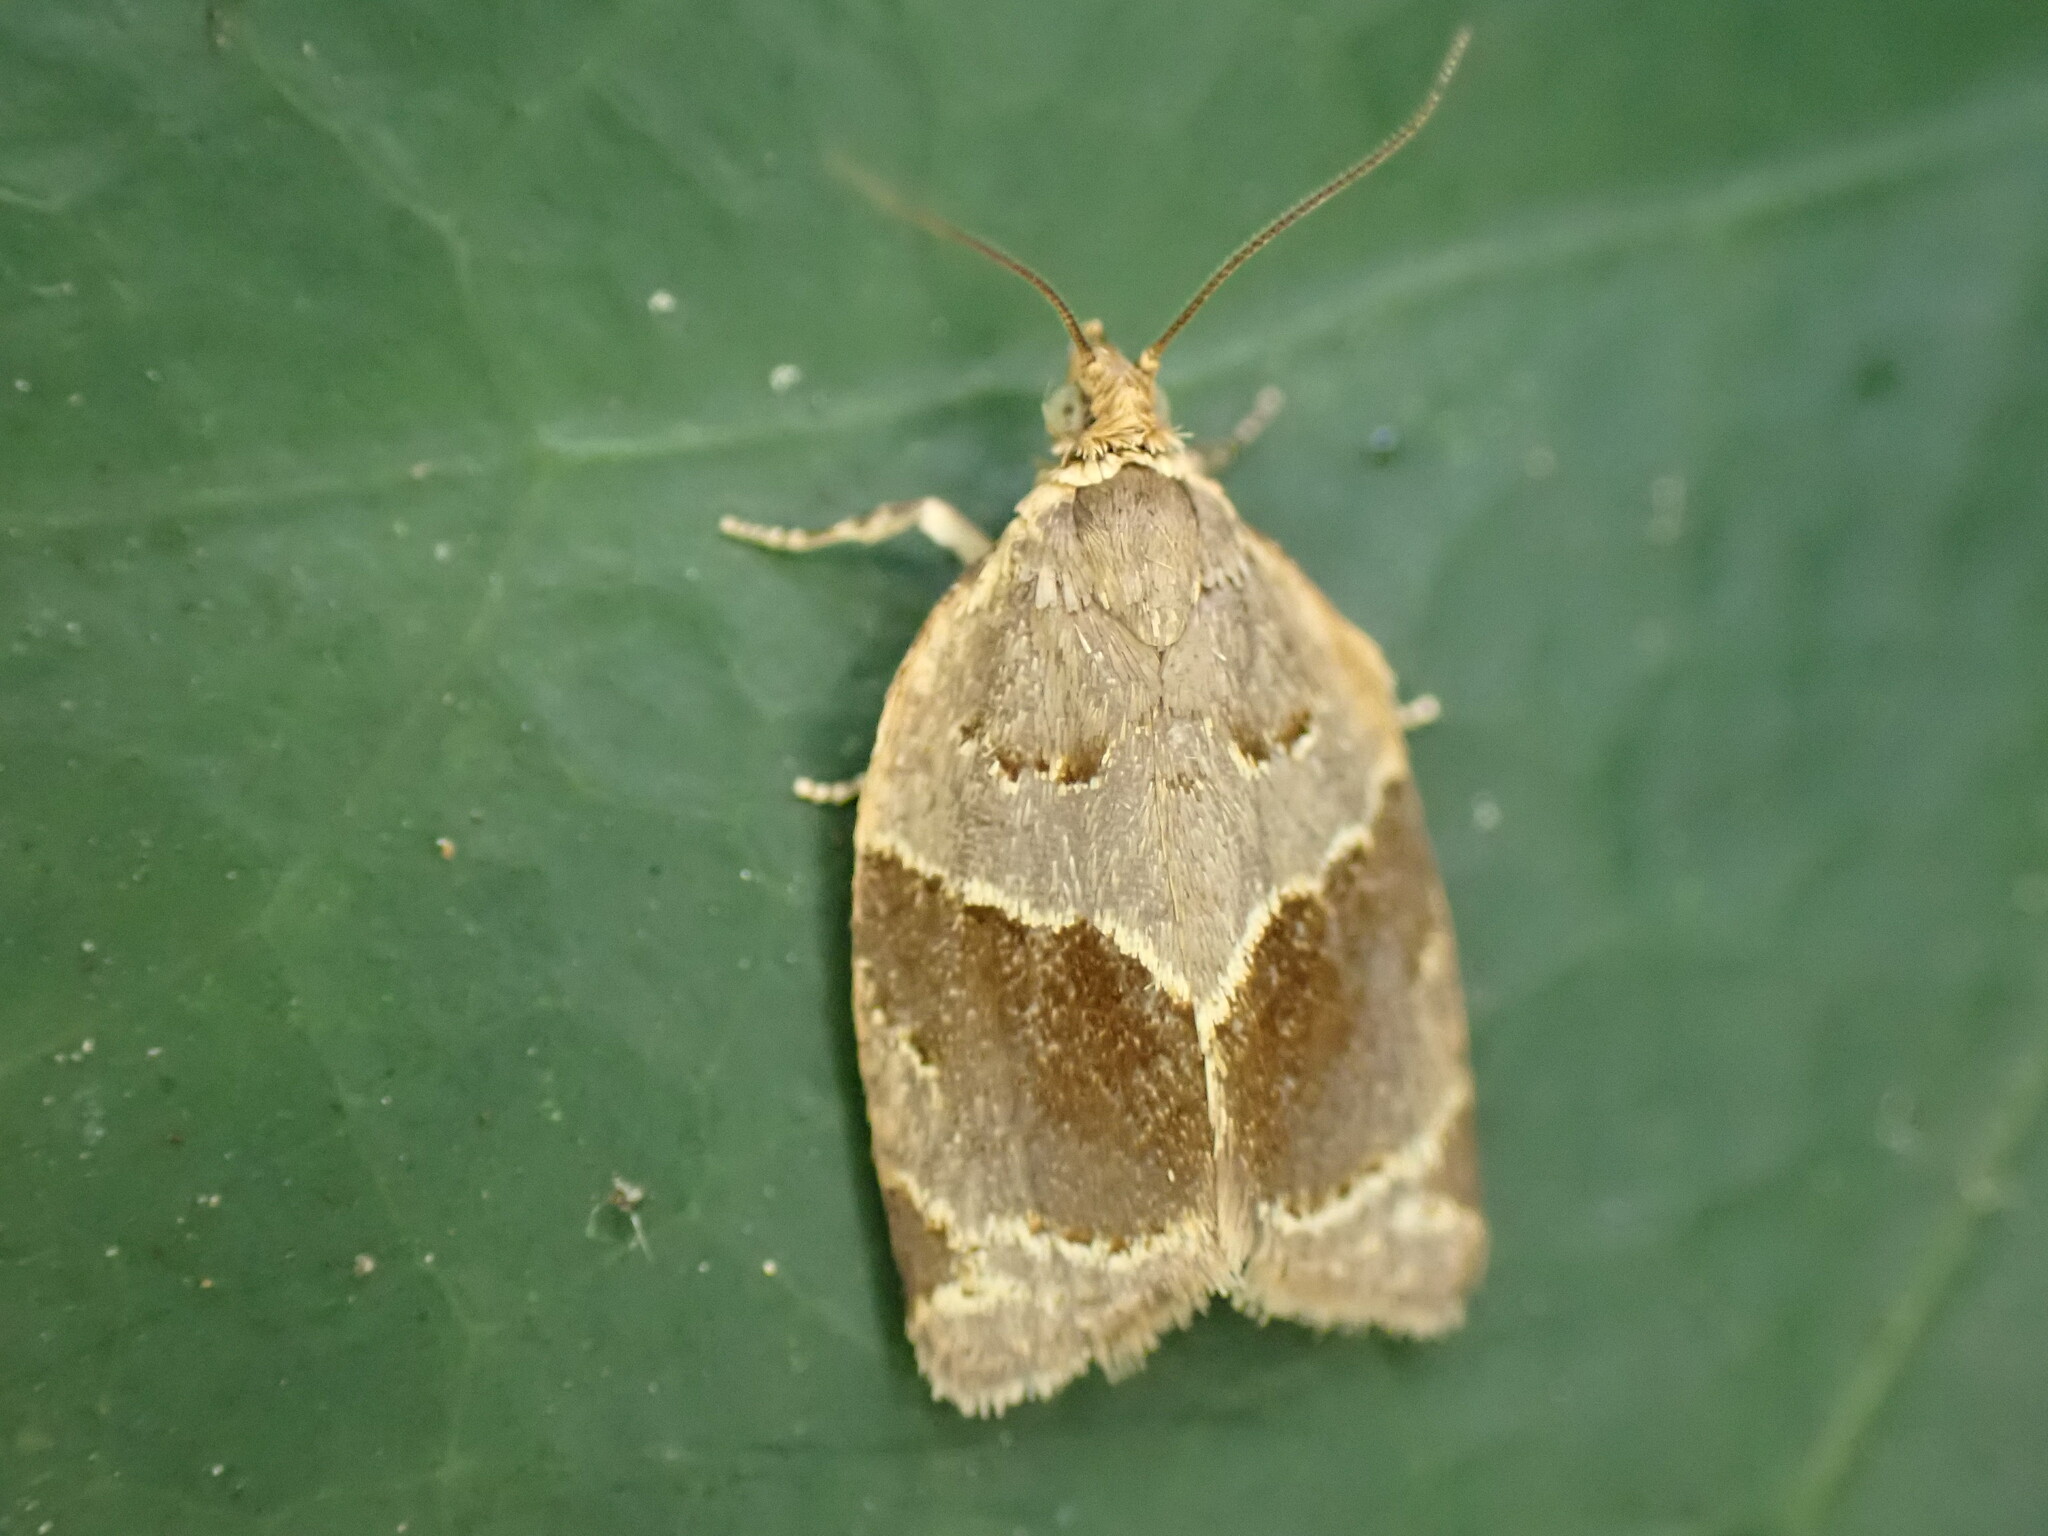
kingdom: Animalia
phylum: Arthropoda
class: Insecta
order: Lepidoptera
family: Tortricidae
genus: Clepsis
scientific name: Clepsis dumicolana
